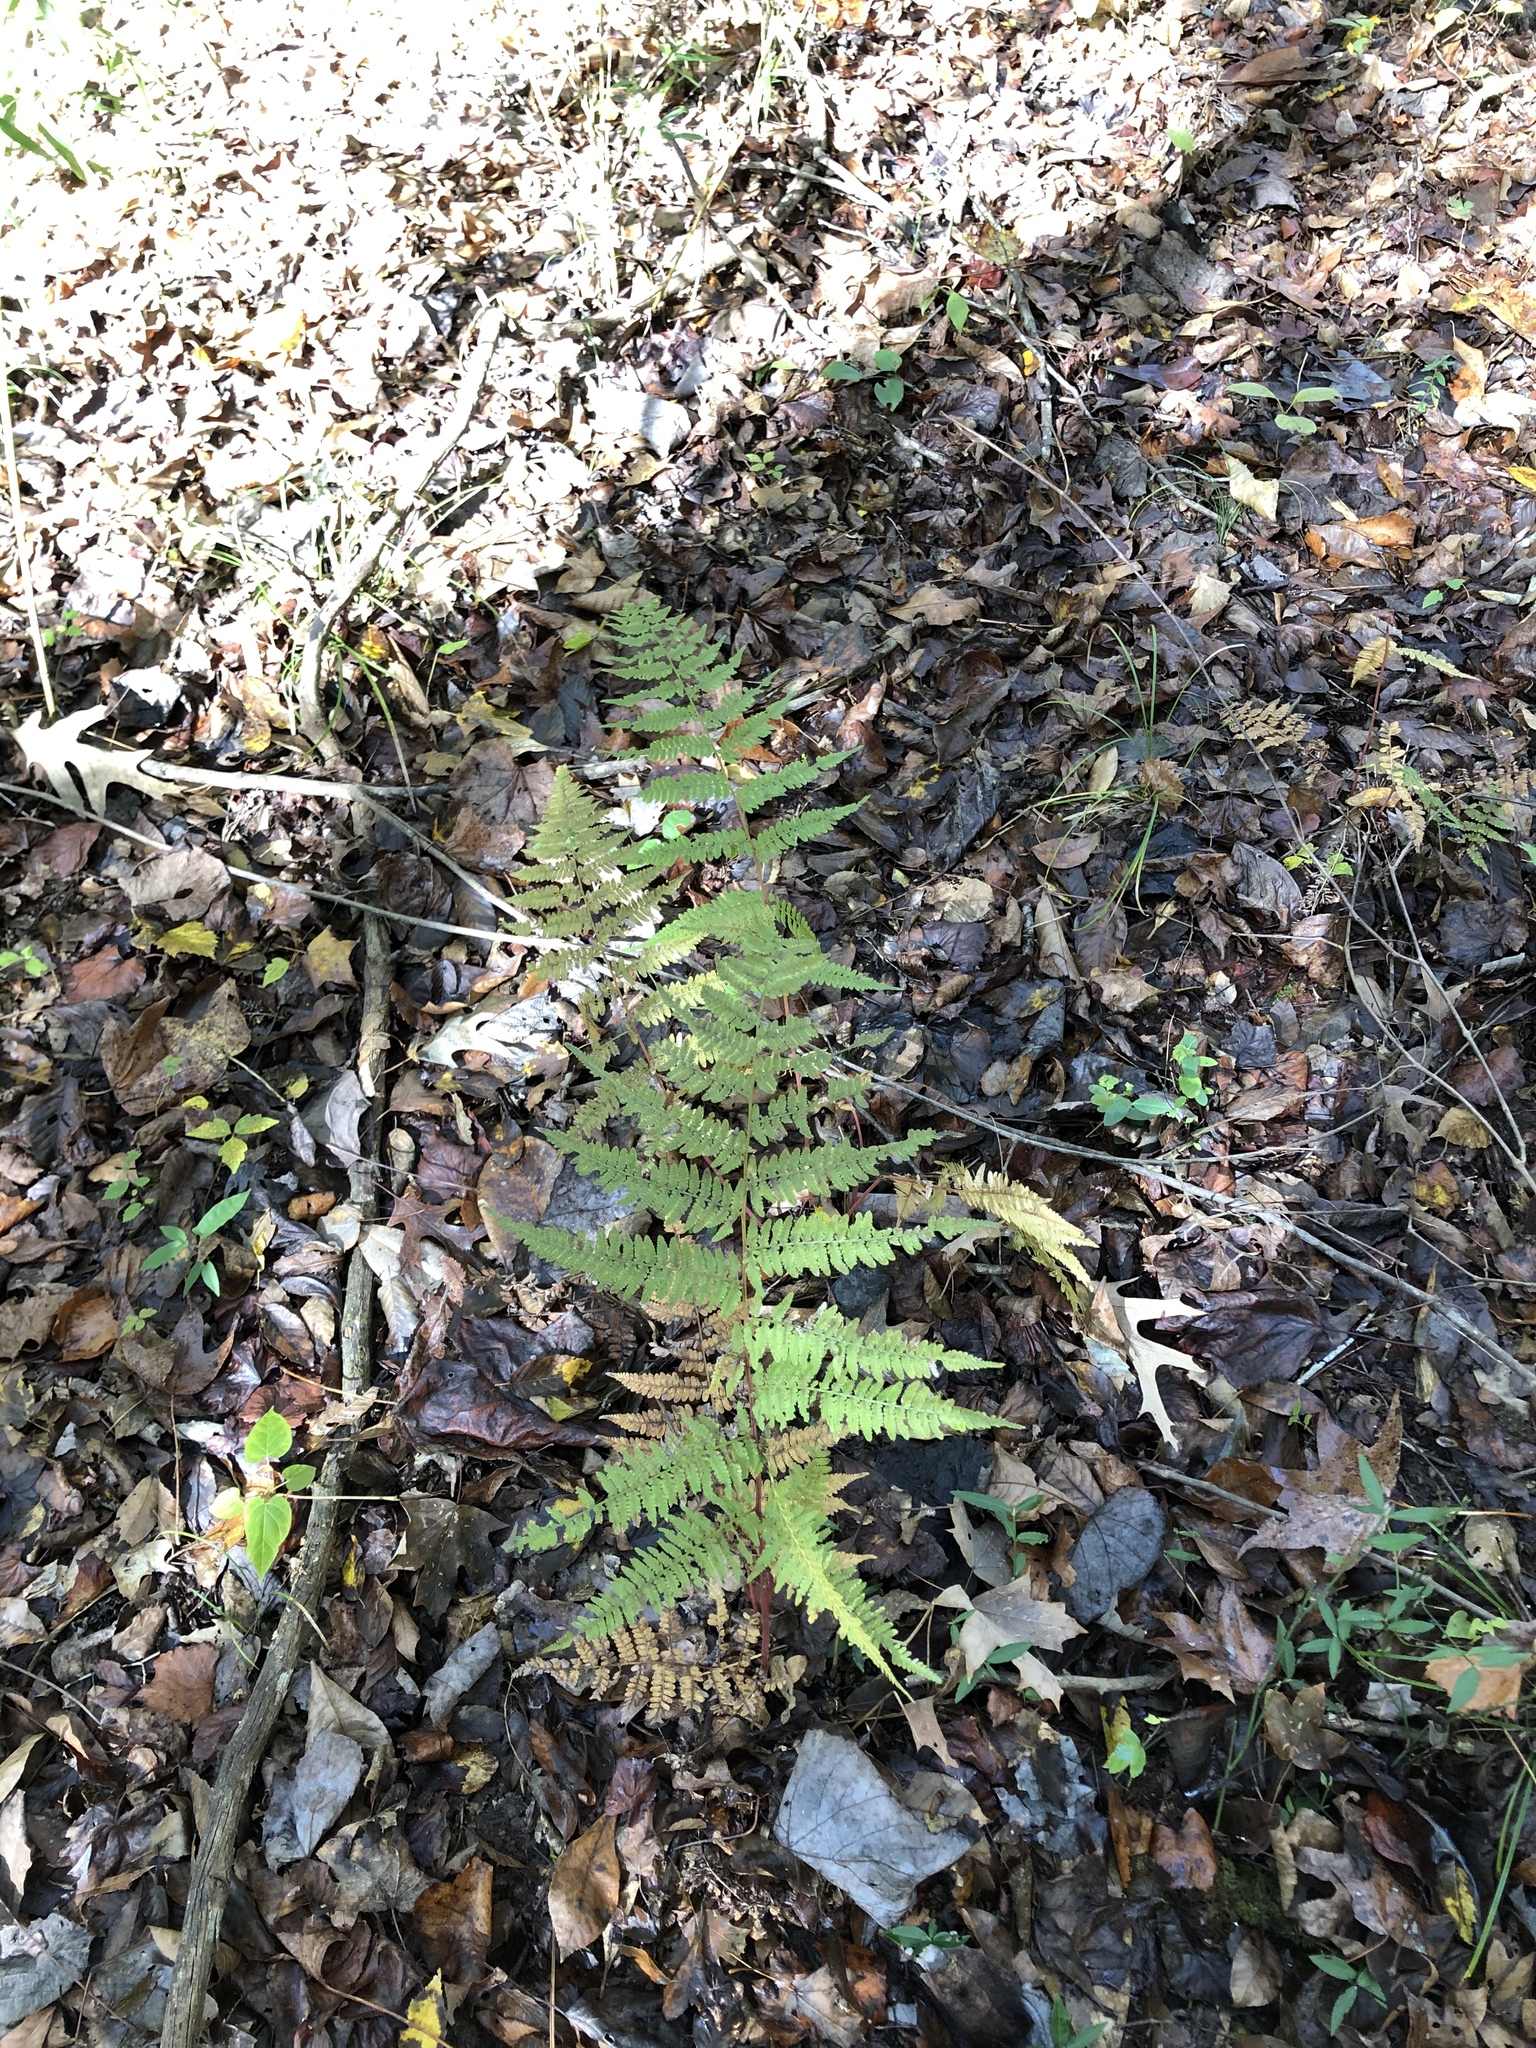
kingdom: Plantae
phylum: Tracheophyta
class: Polypodiopsida
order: Polypodiales
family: Athyriaceae
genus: Athyrium
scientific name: Athyrium asplenioides
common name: Southern lady fern
